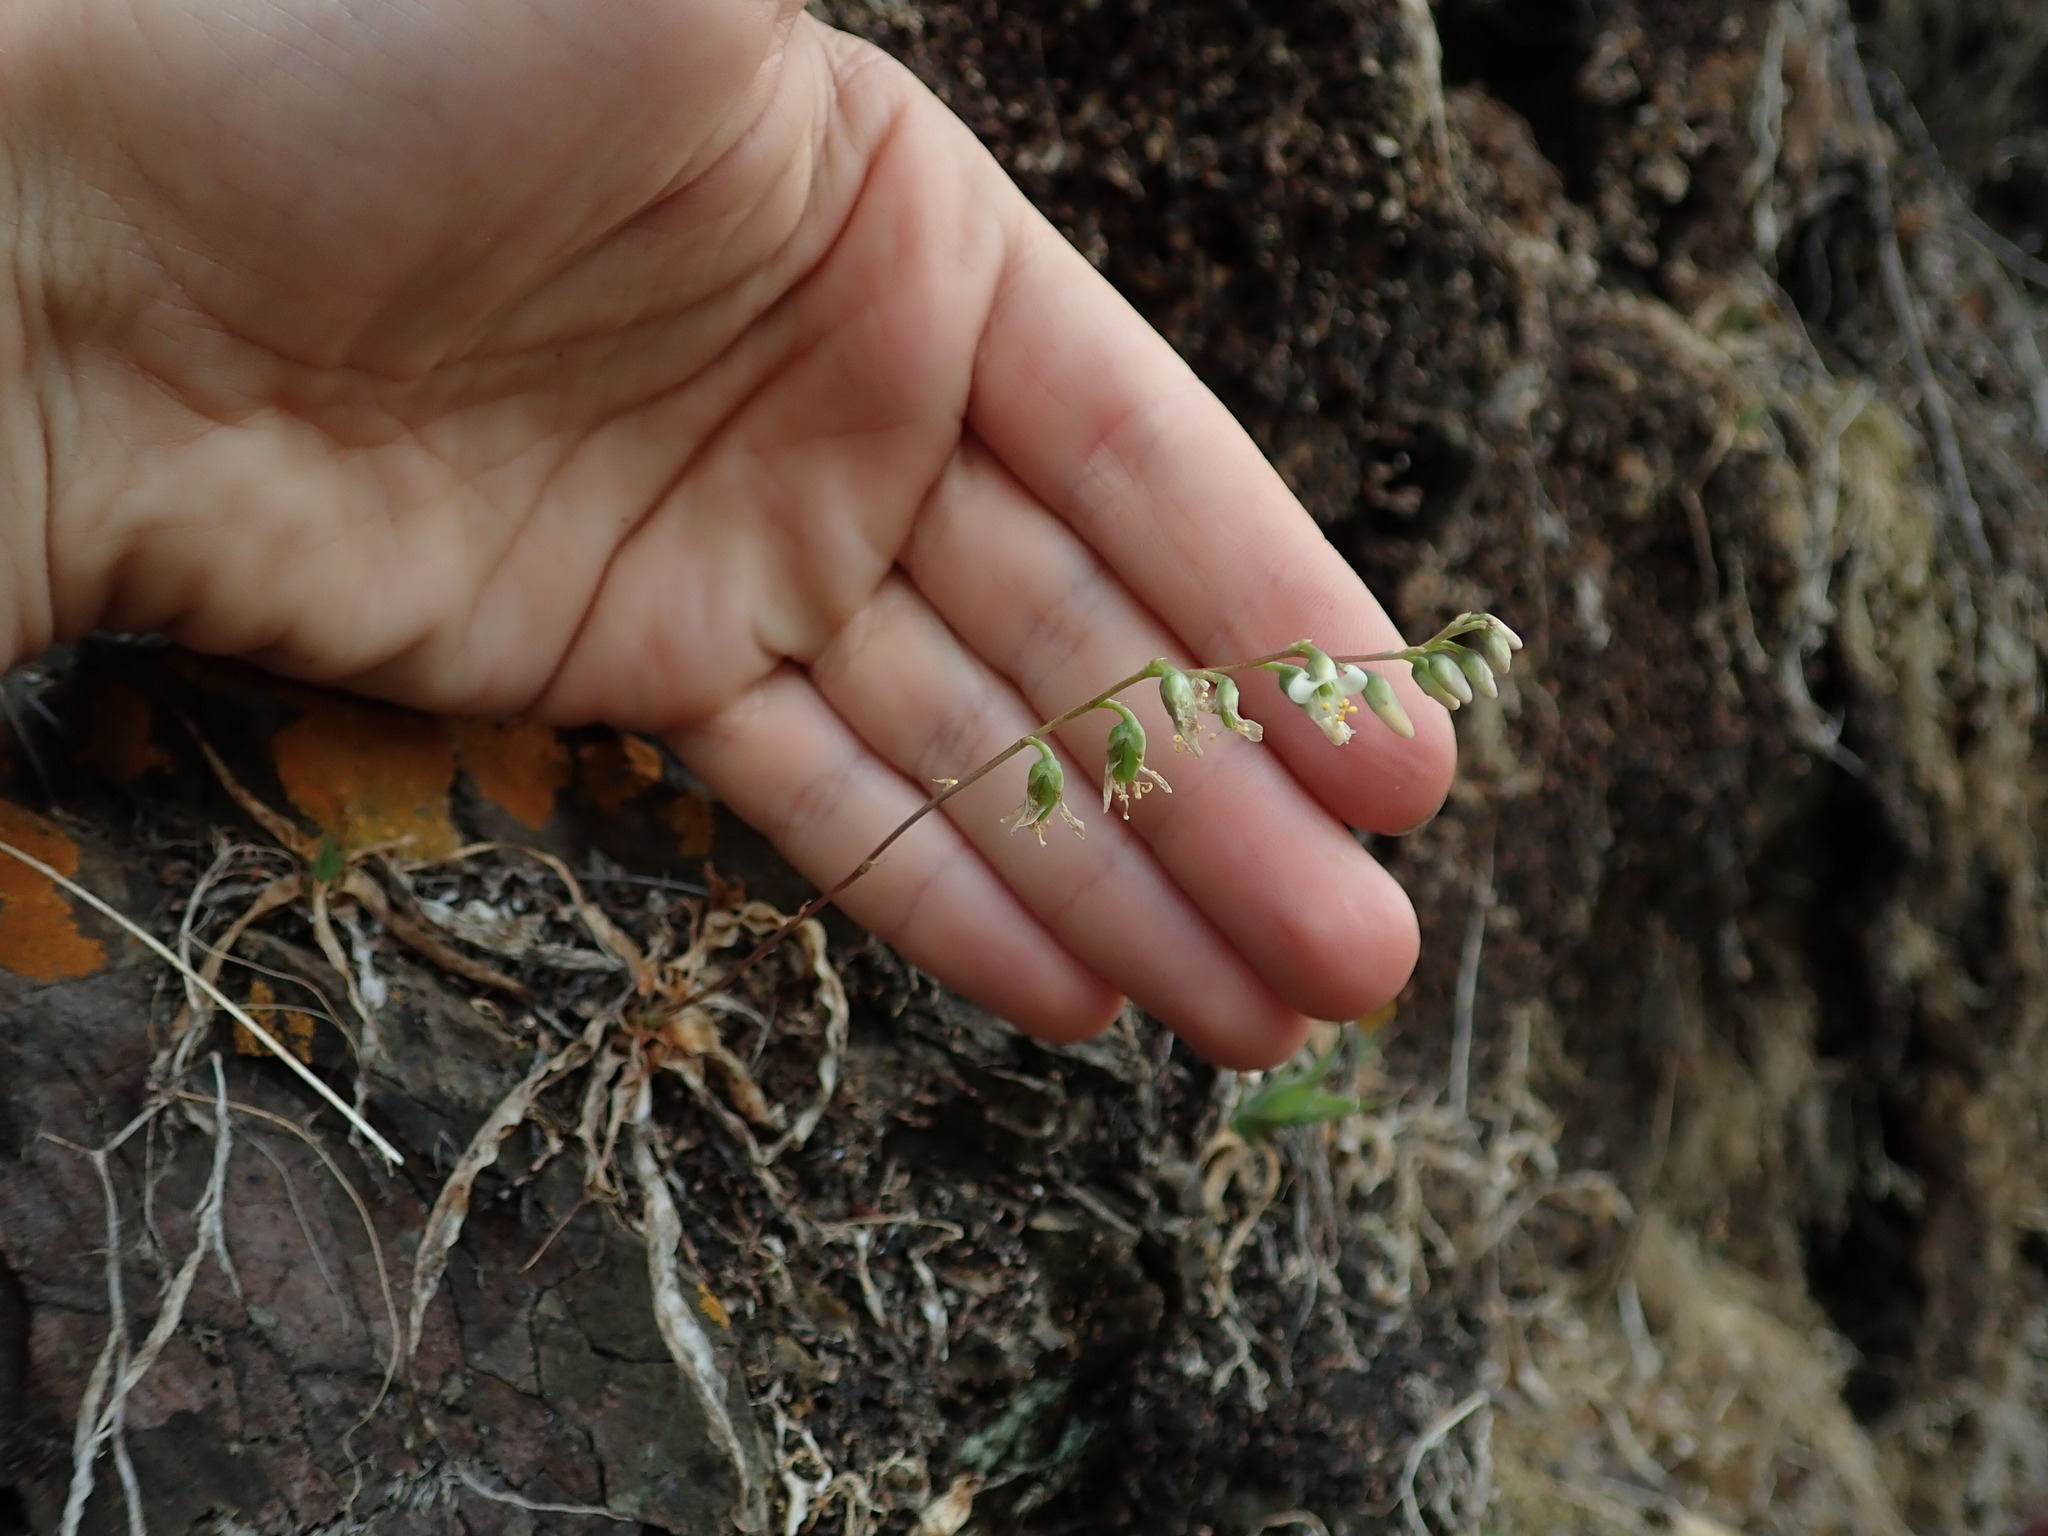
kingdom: Plantae
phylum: Tracheophyta
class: Liliopsida
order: Poales
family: Bromeliaceae
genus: Fosterella
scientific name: Fosterella penduliflora
